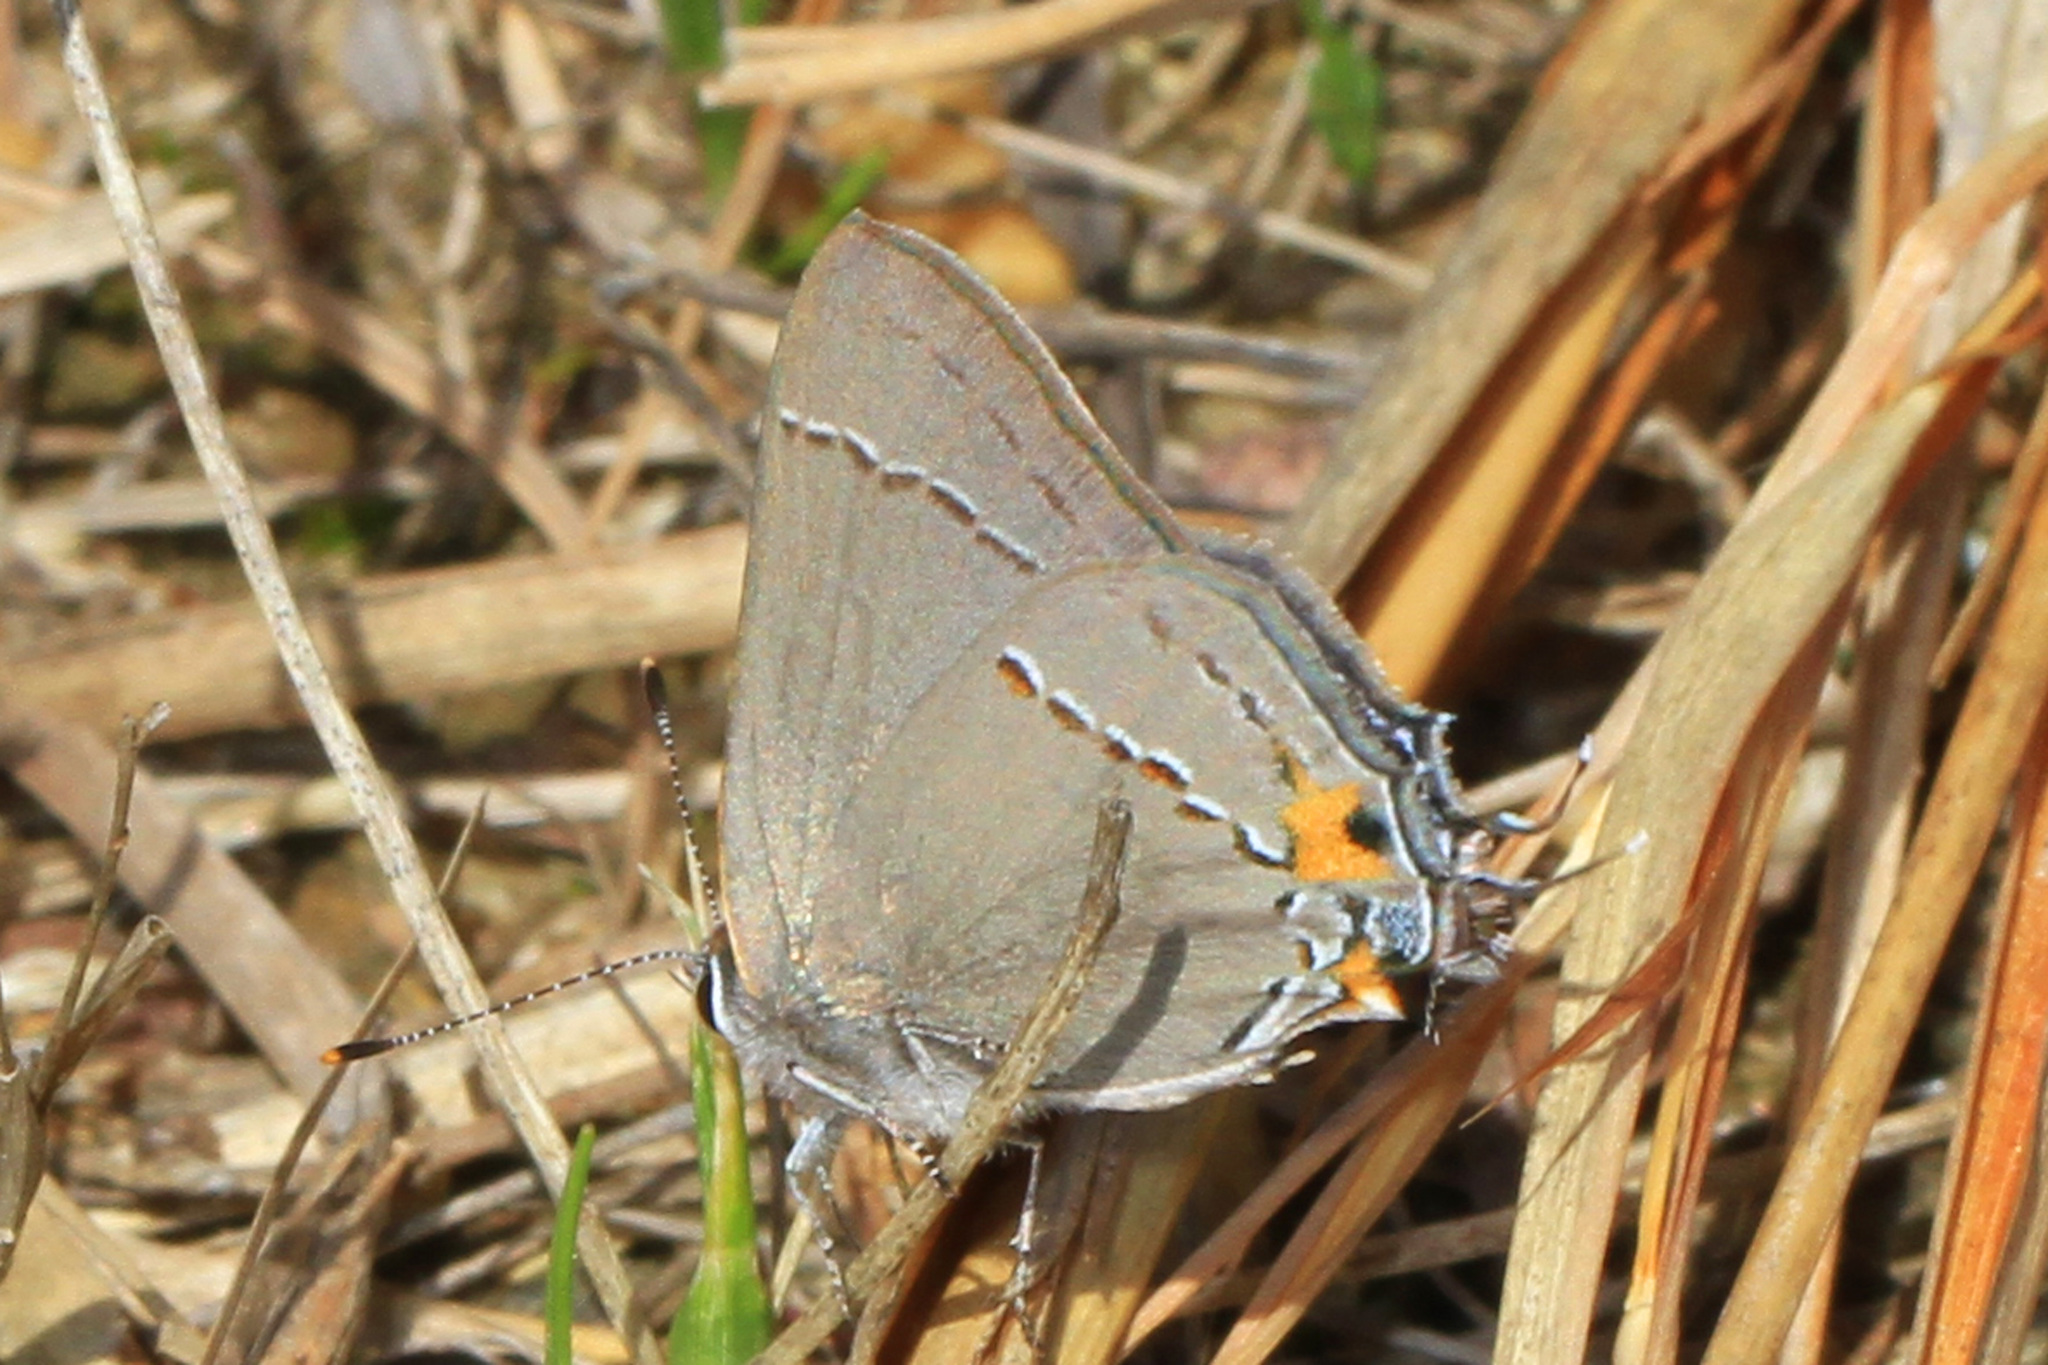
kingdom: Animalia
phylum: Arthropoda
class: Insecta
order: Lepidoptera
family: Lycaenidae
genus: Strymon
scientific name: Strymon melinus
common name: Gray hairstreak
